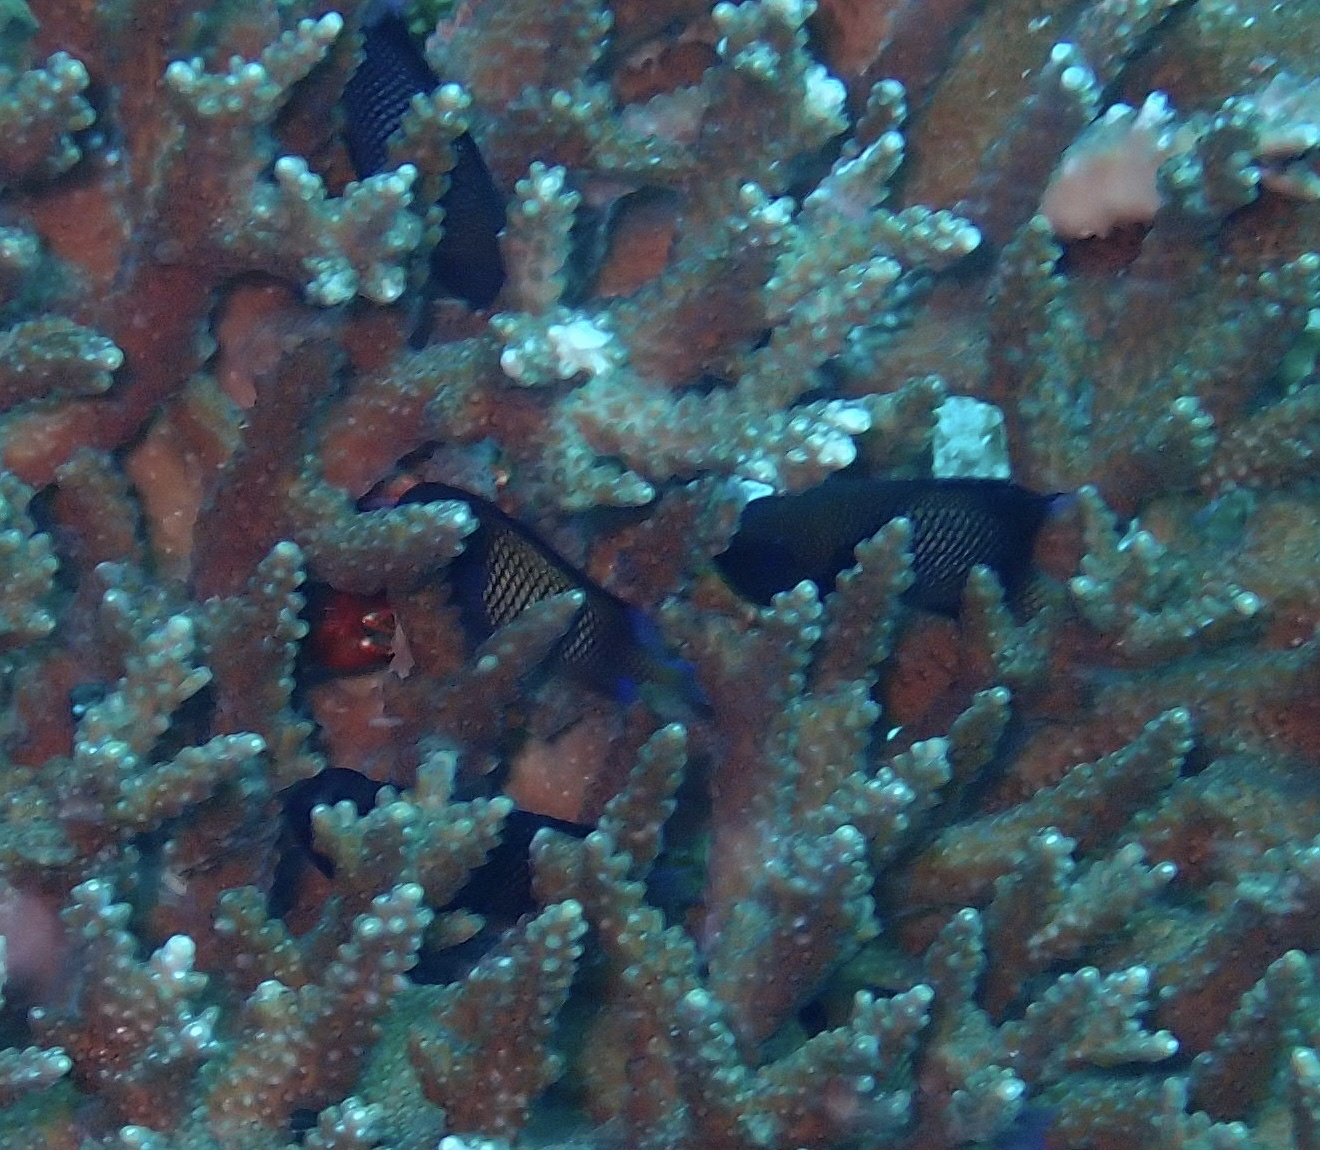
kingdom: Animalia
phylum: Chordata
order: Perciformes
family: Pomacentridae
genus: Dascyllus
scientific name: Dascyllus reticulatus
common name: Reticulated dascyllus
